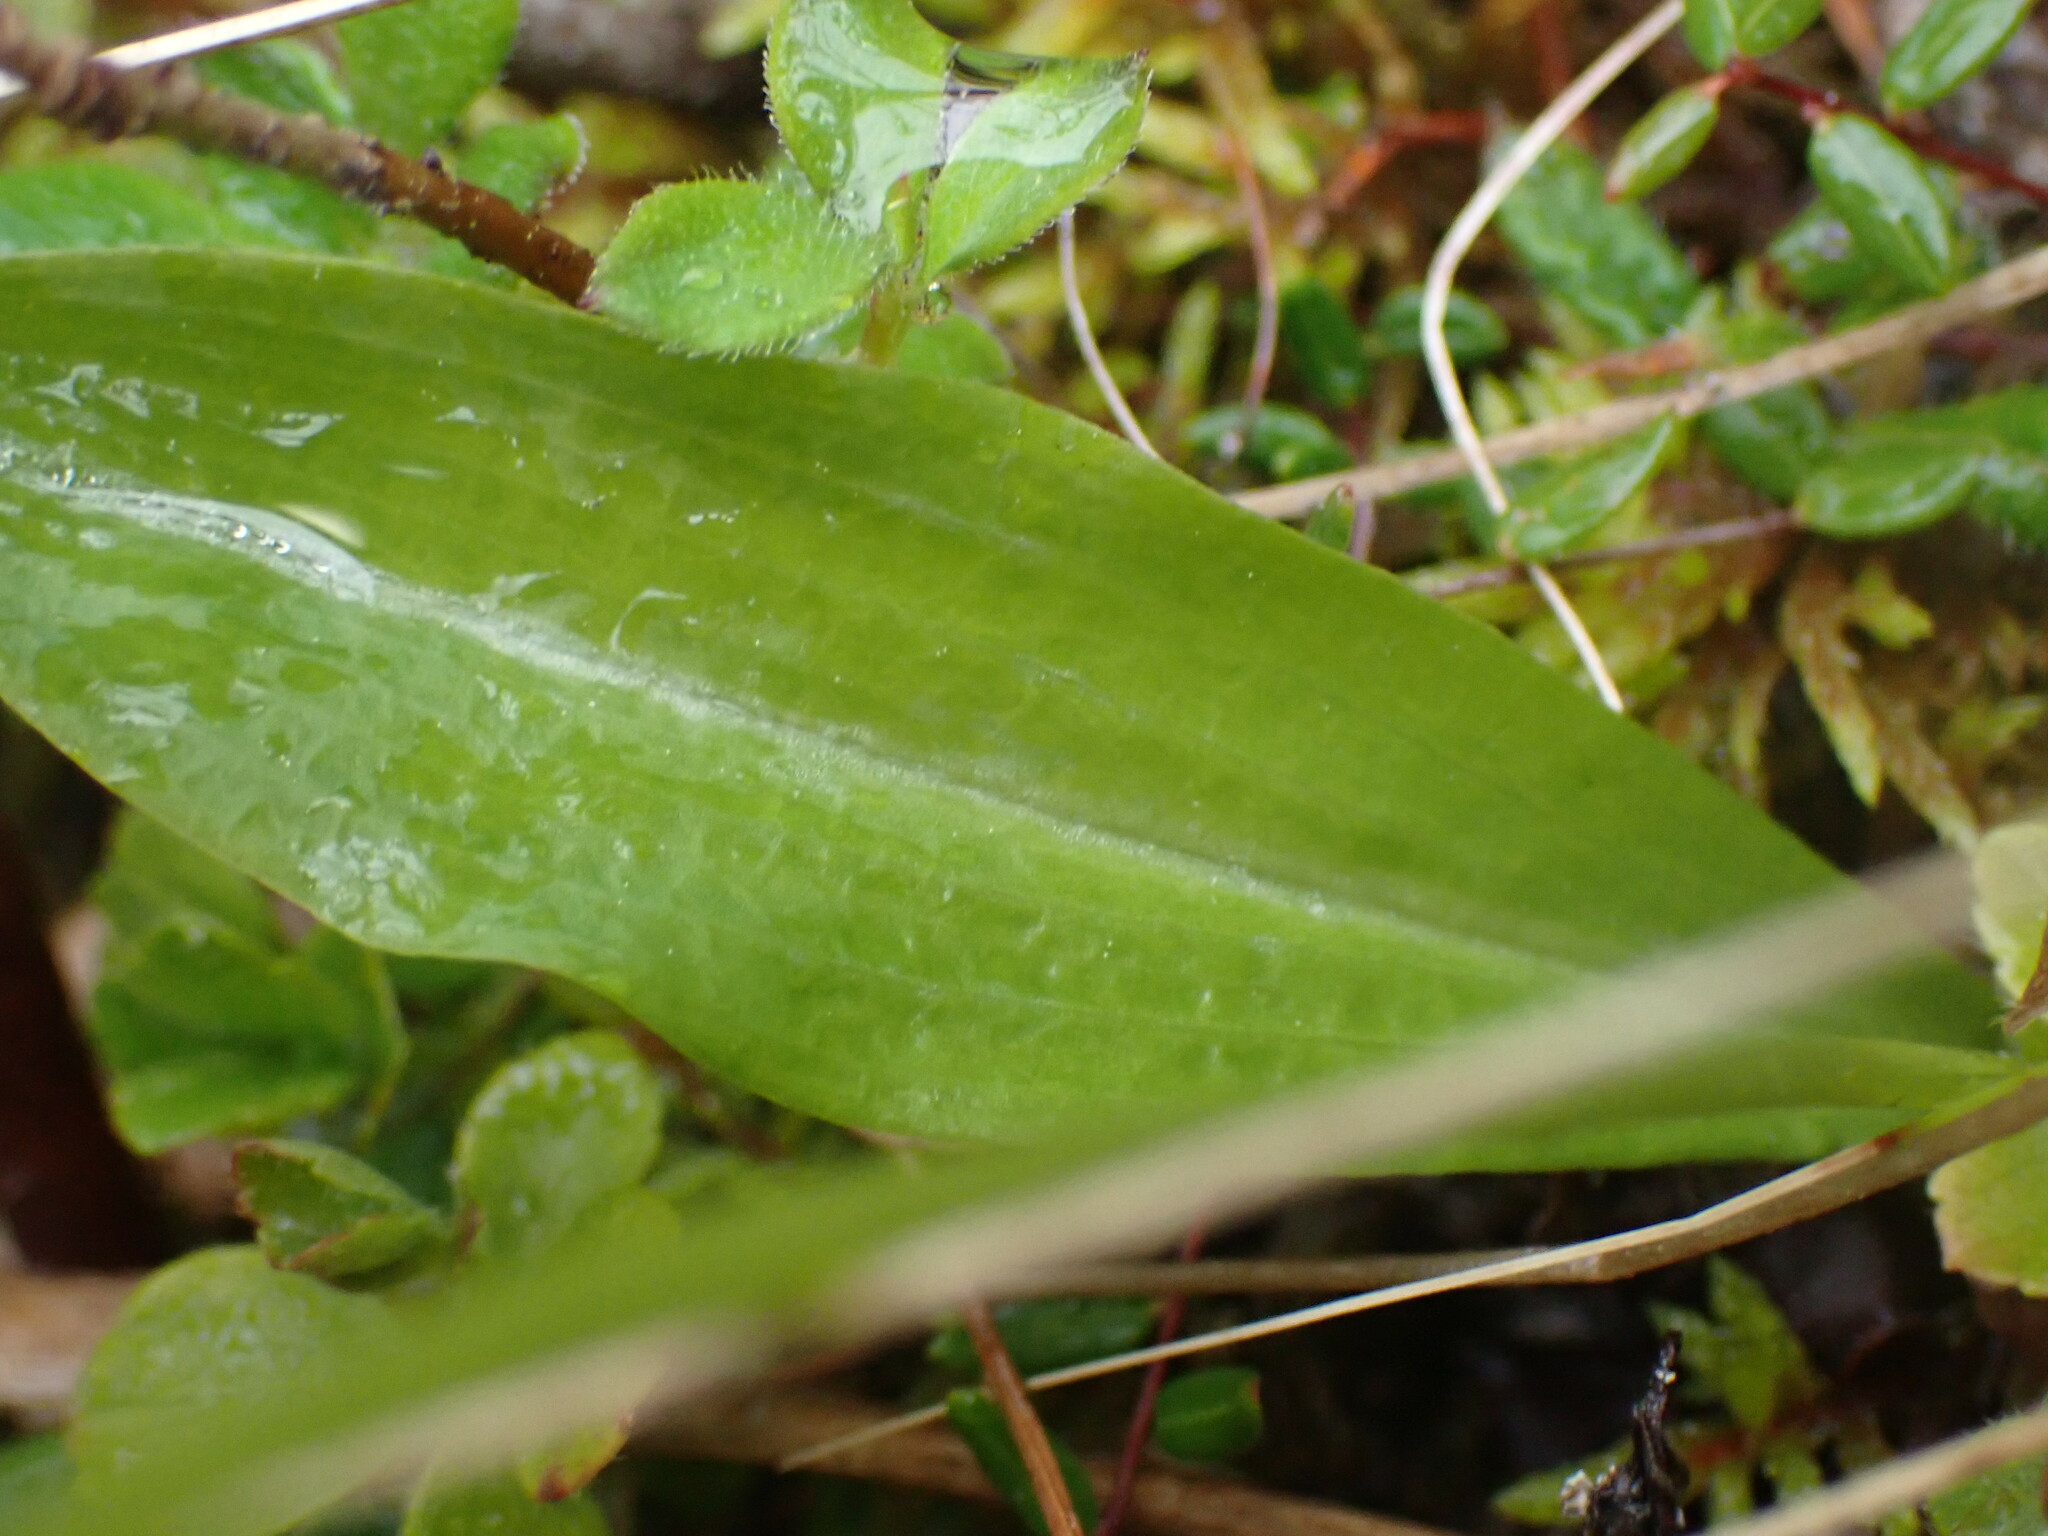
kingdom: Plantae
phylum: Tracheophyta
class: Liliopsida
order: Asparagales
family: Orchidaceae
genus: Platanthera
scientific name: Platanthera obtusata
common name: Blunt bog orchid
